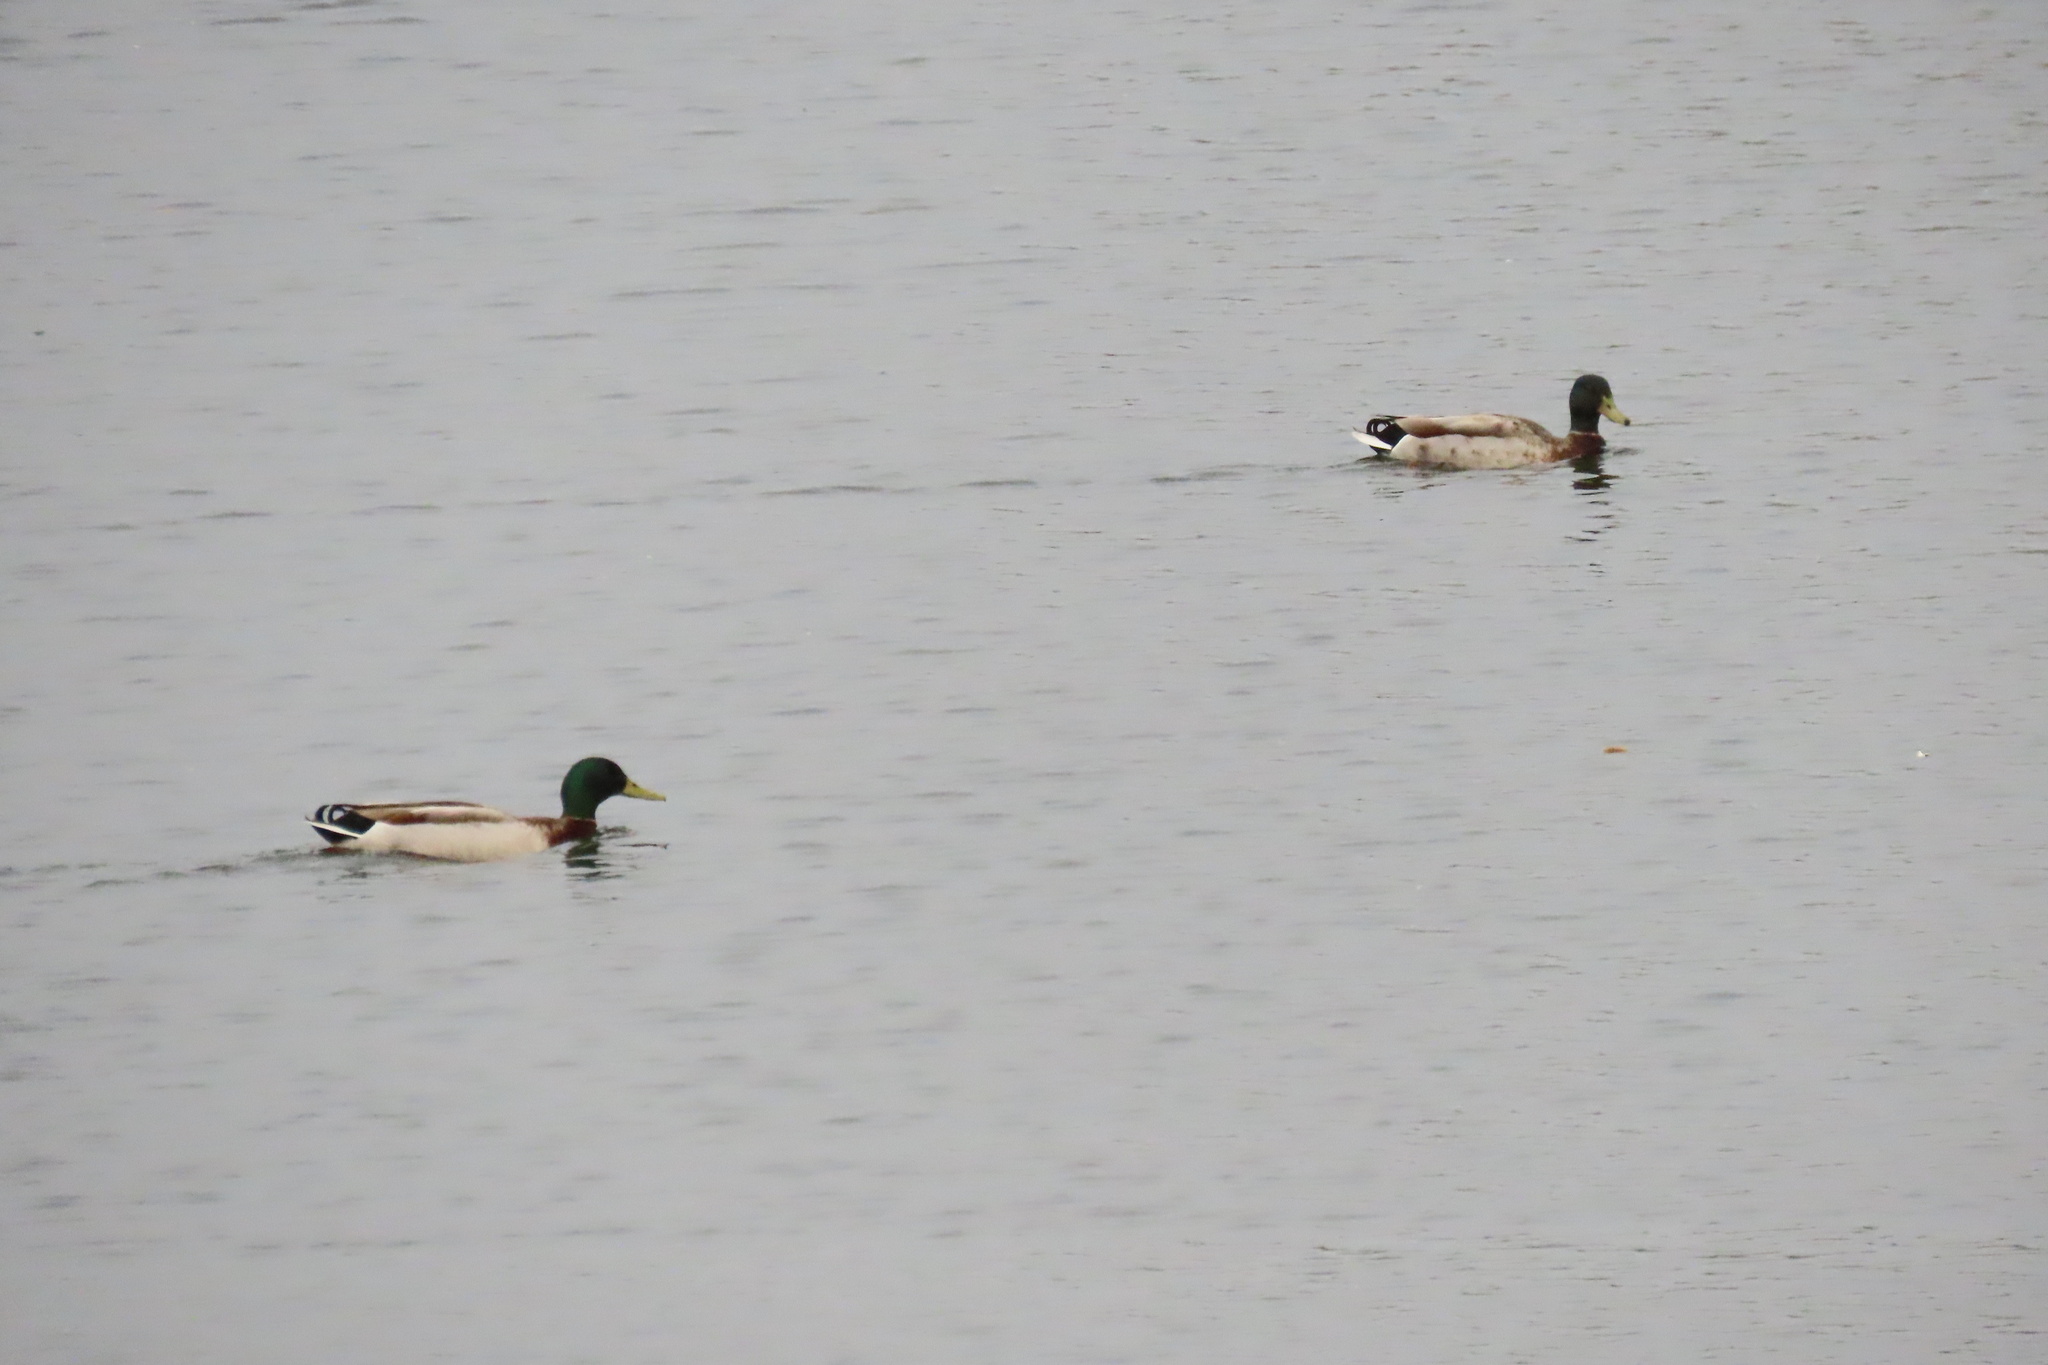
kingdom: Animalia
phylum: Chordata
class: Aves
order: Anseriformes
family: Anatidae
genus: Anas
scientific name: Anas platyrhynchos
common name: Mallard
